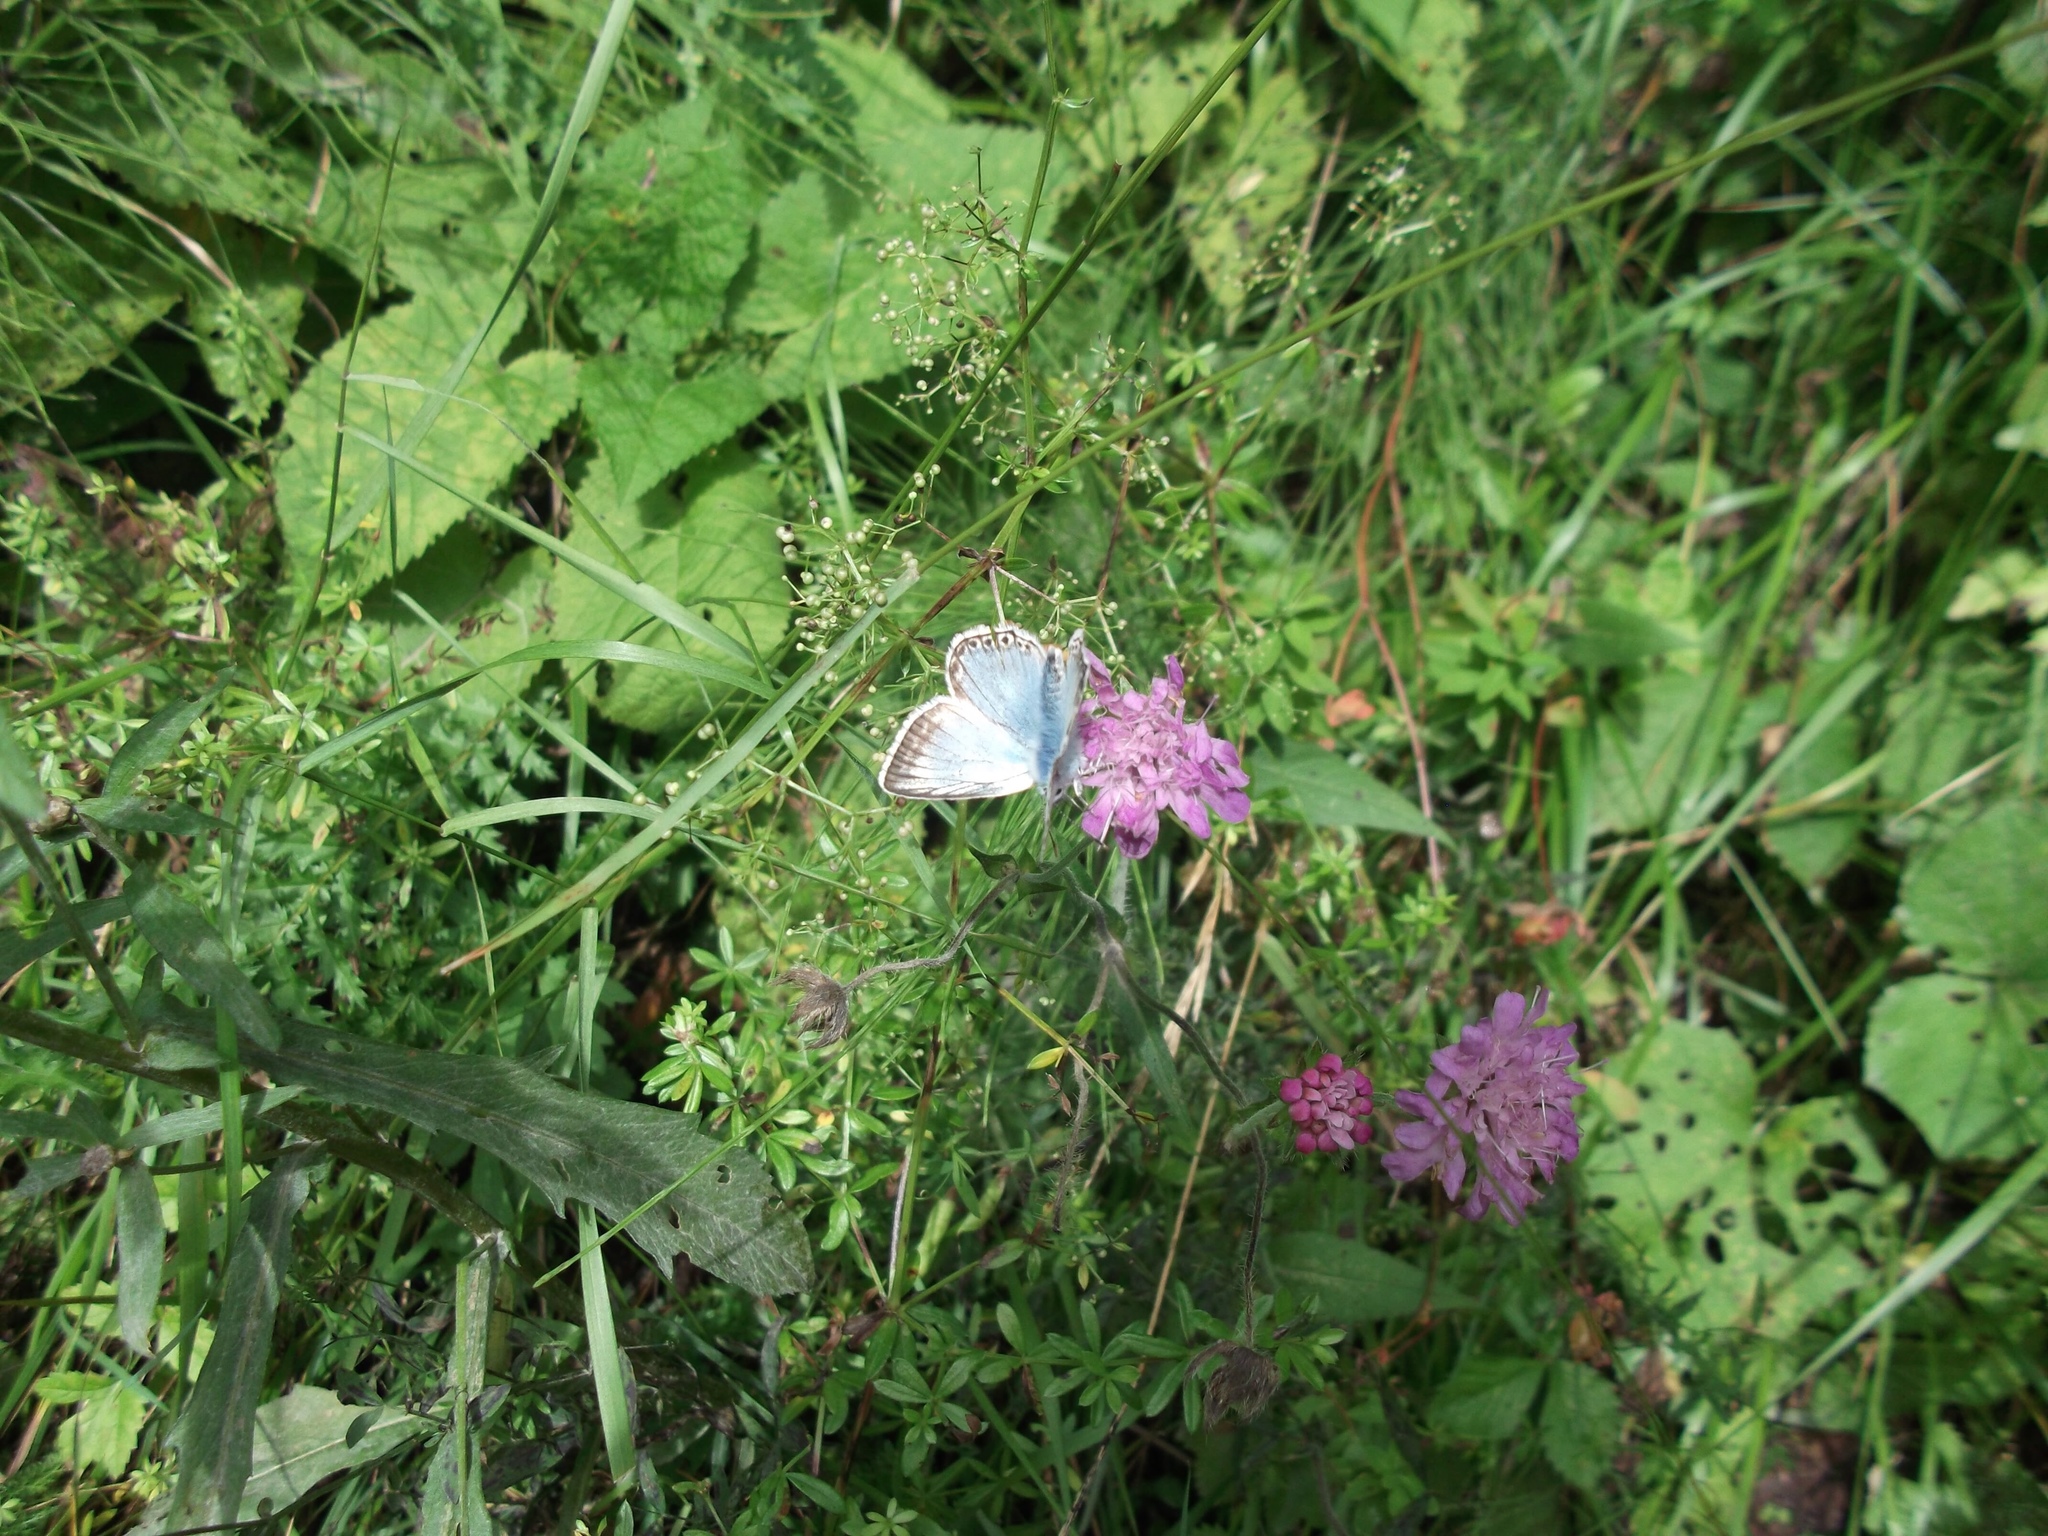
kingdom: Animalia
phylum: Arthropoda
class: Insecta
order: Lepidoptera
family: Lycaenidae
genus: Lysandra
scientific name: Lysandra coridon
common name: Chalkhill blue
